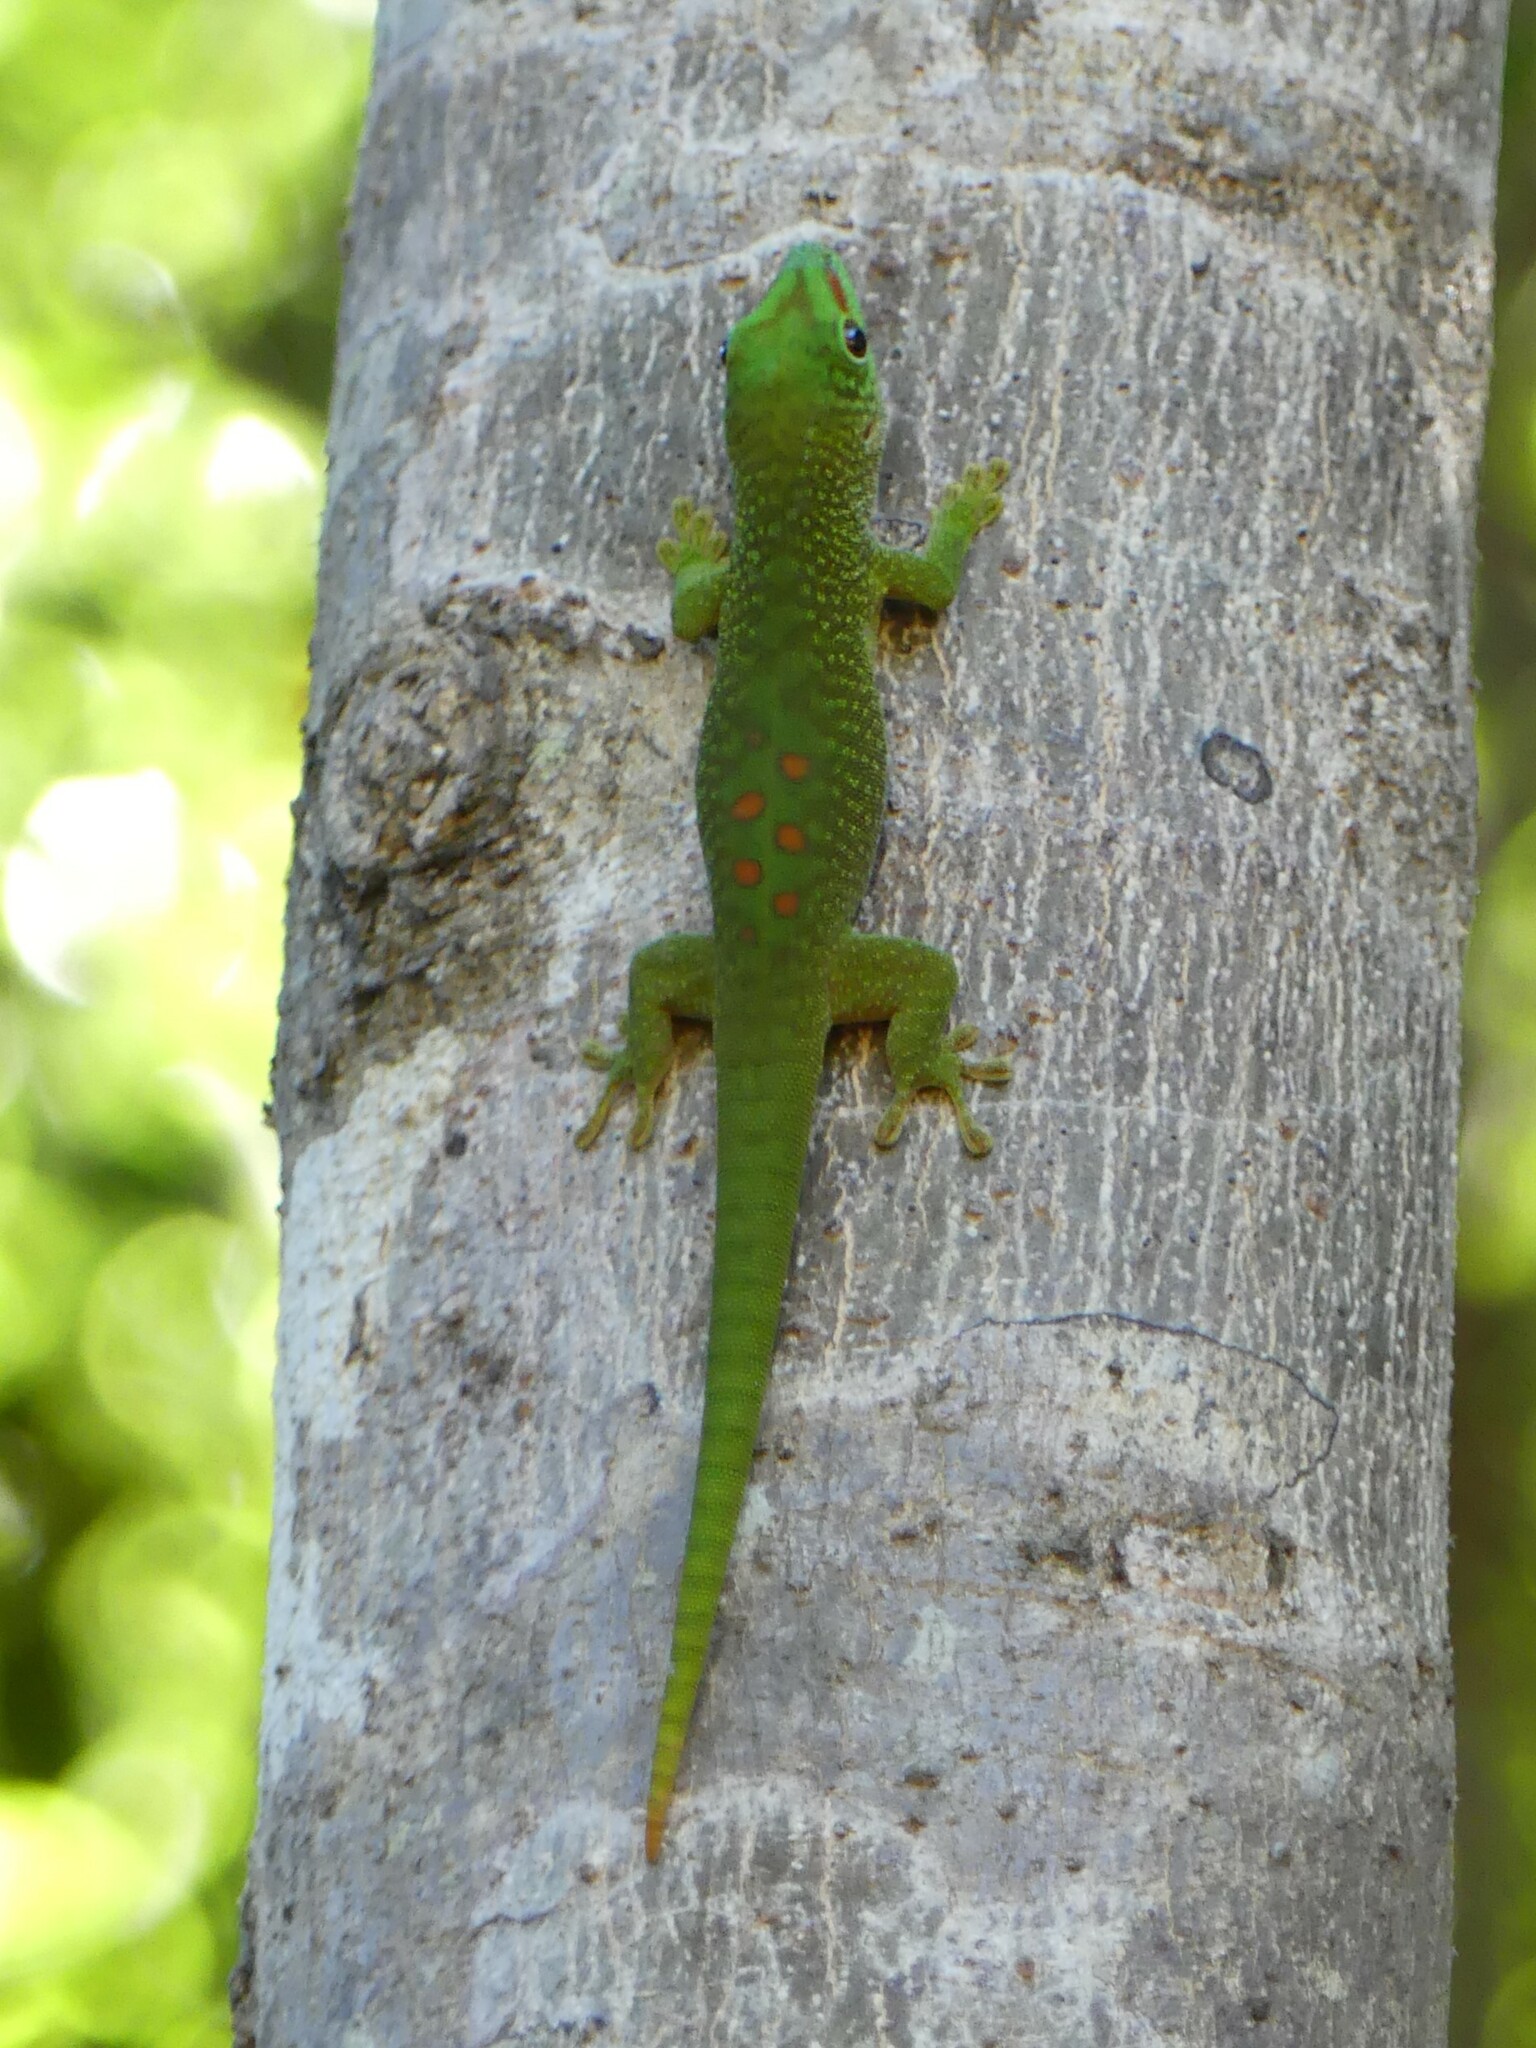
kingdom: Animalia
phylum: Chordata
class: Squamata
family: Gekkonidae
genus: Phelsuma
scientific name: Phelsuma grandis
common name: Madagascar giant day gecko
